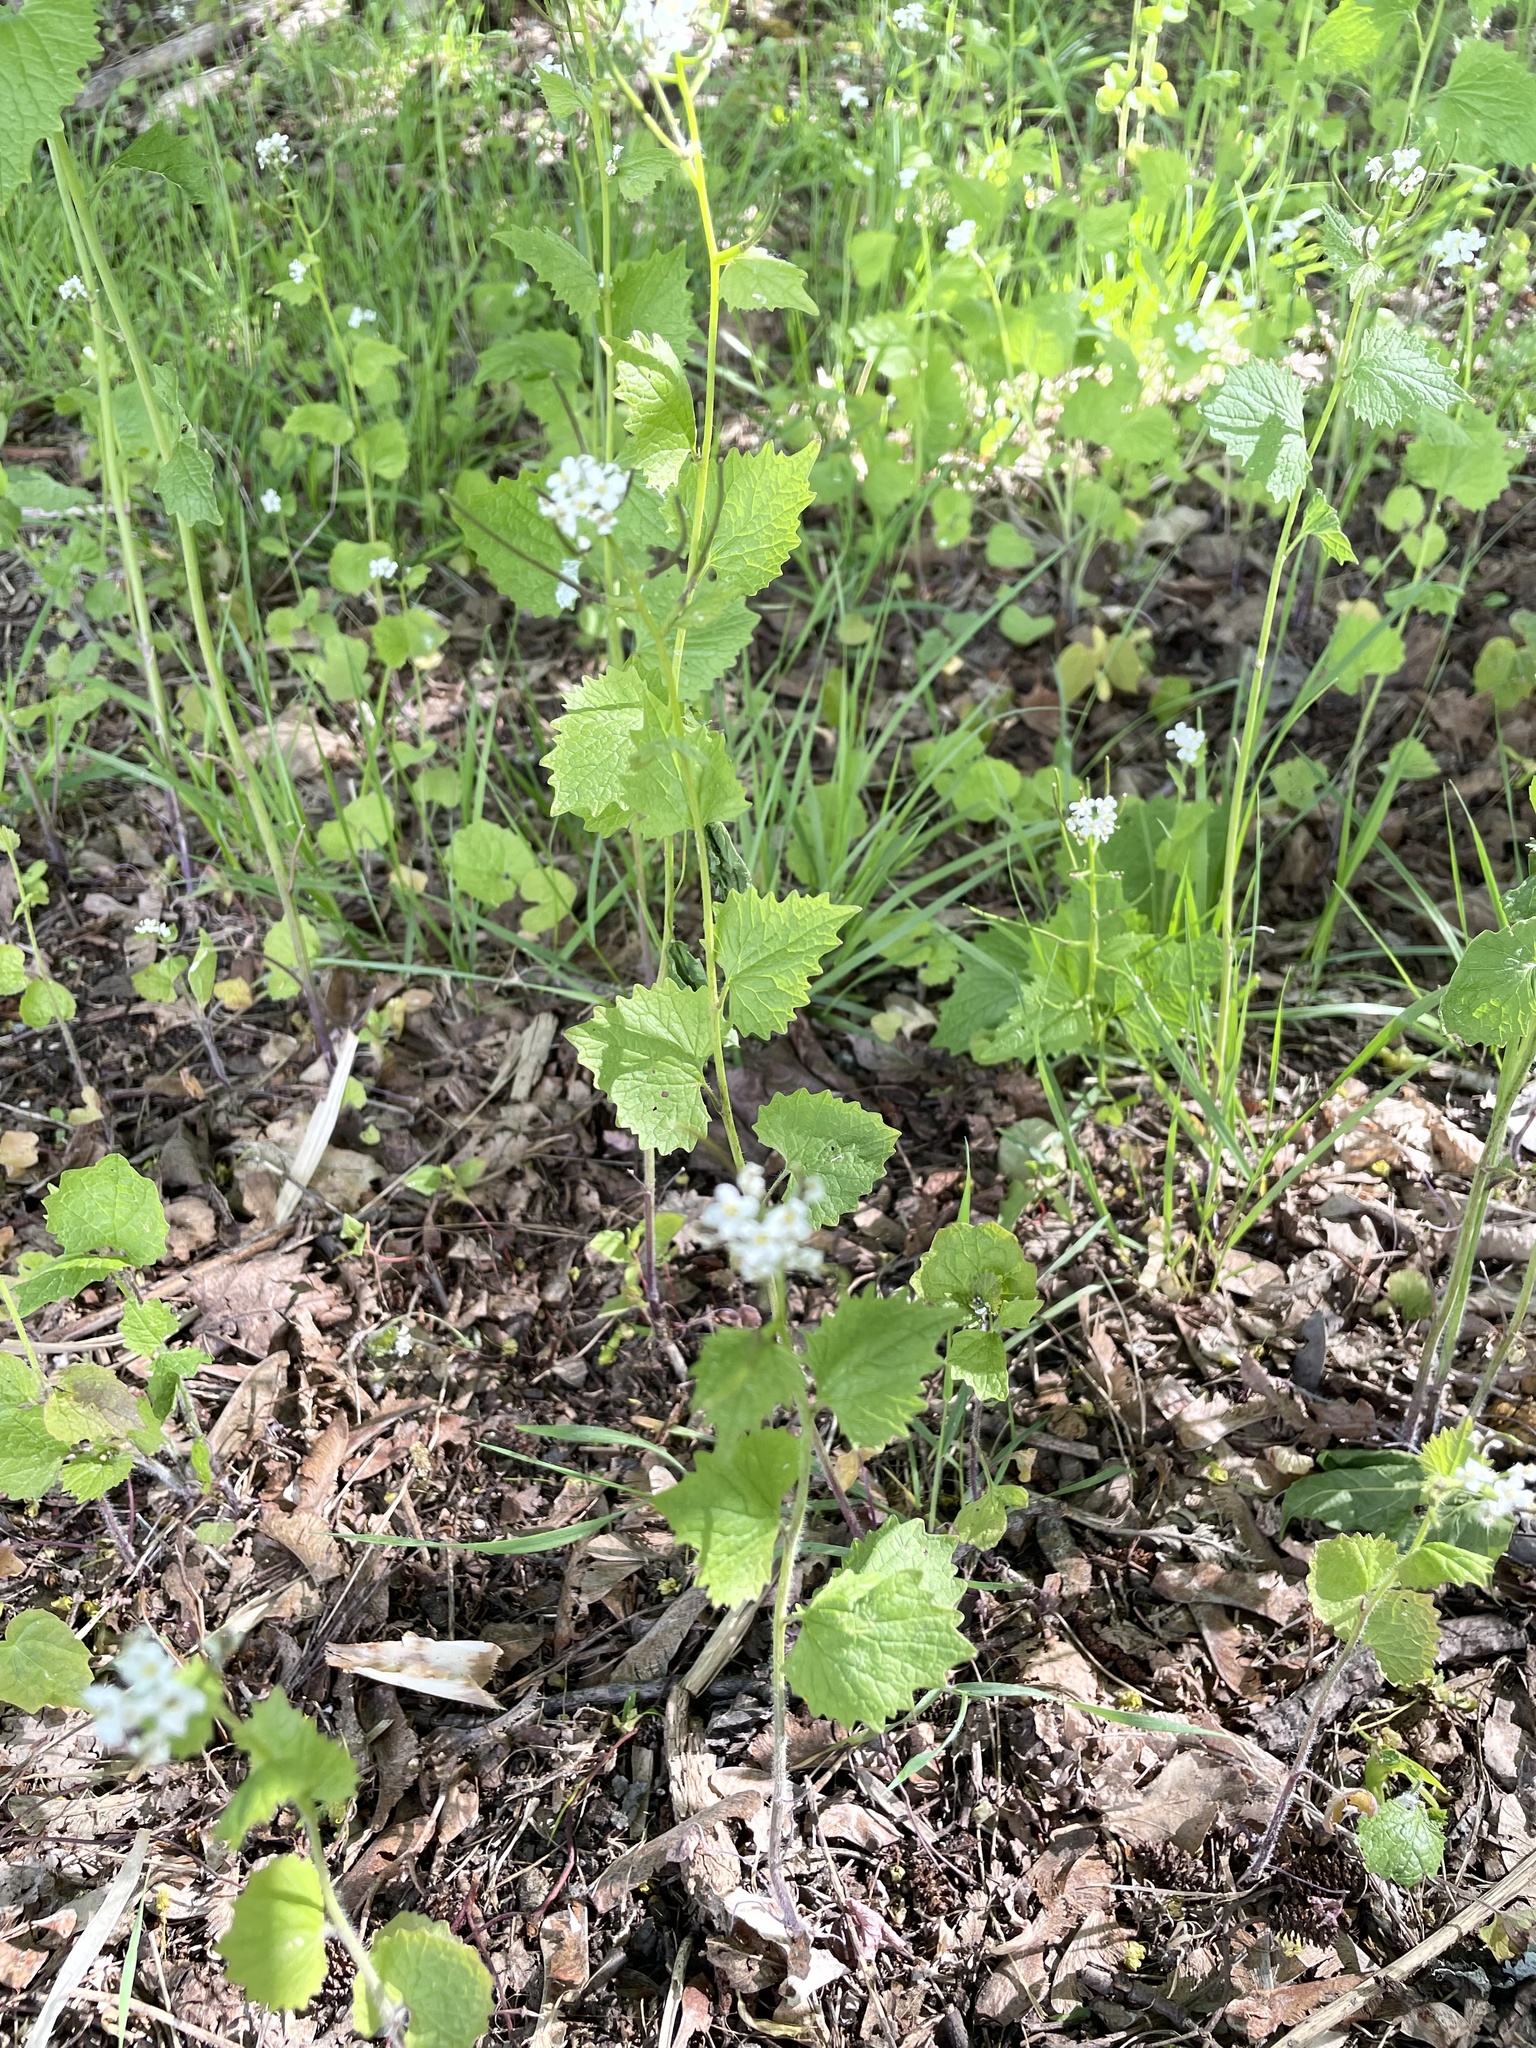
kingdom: Plantae
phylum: Tracheophyta
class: Magnoliopsida
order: Brassicales
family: Brassicaceae
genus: Alliaria
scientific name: Alliaria petiolata
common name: Garlic mustard
